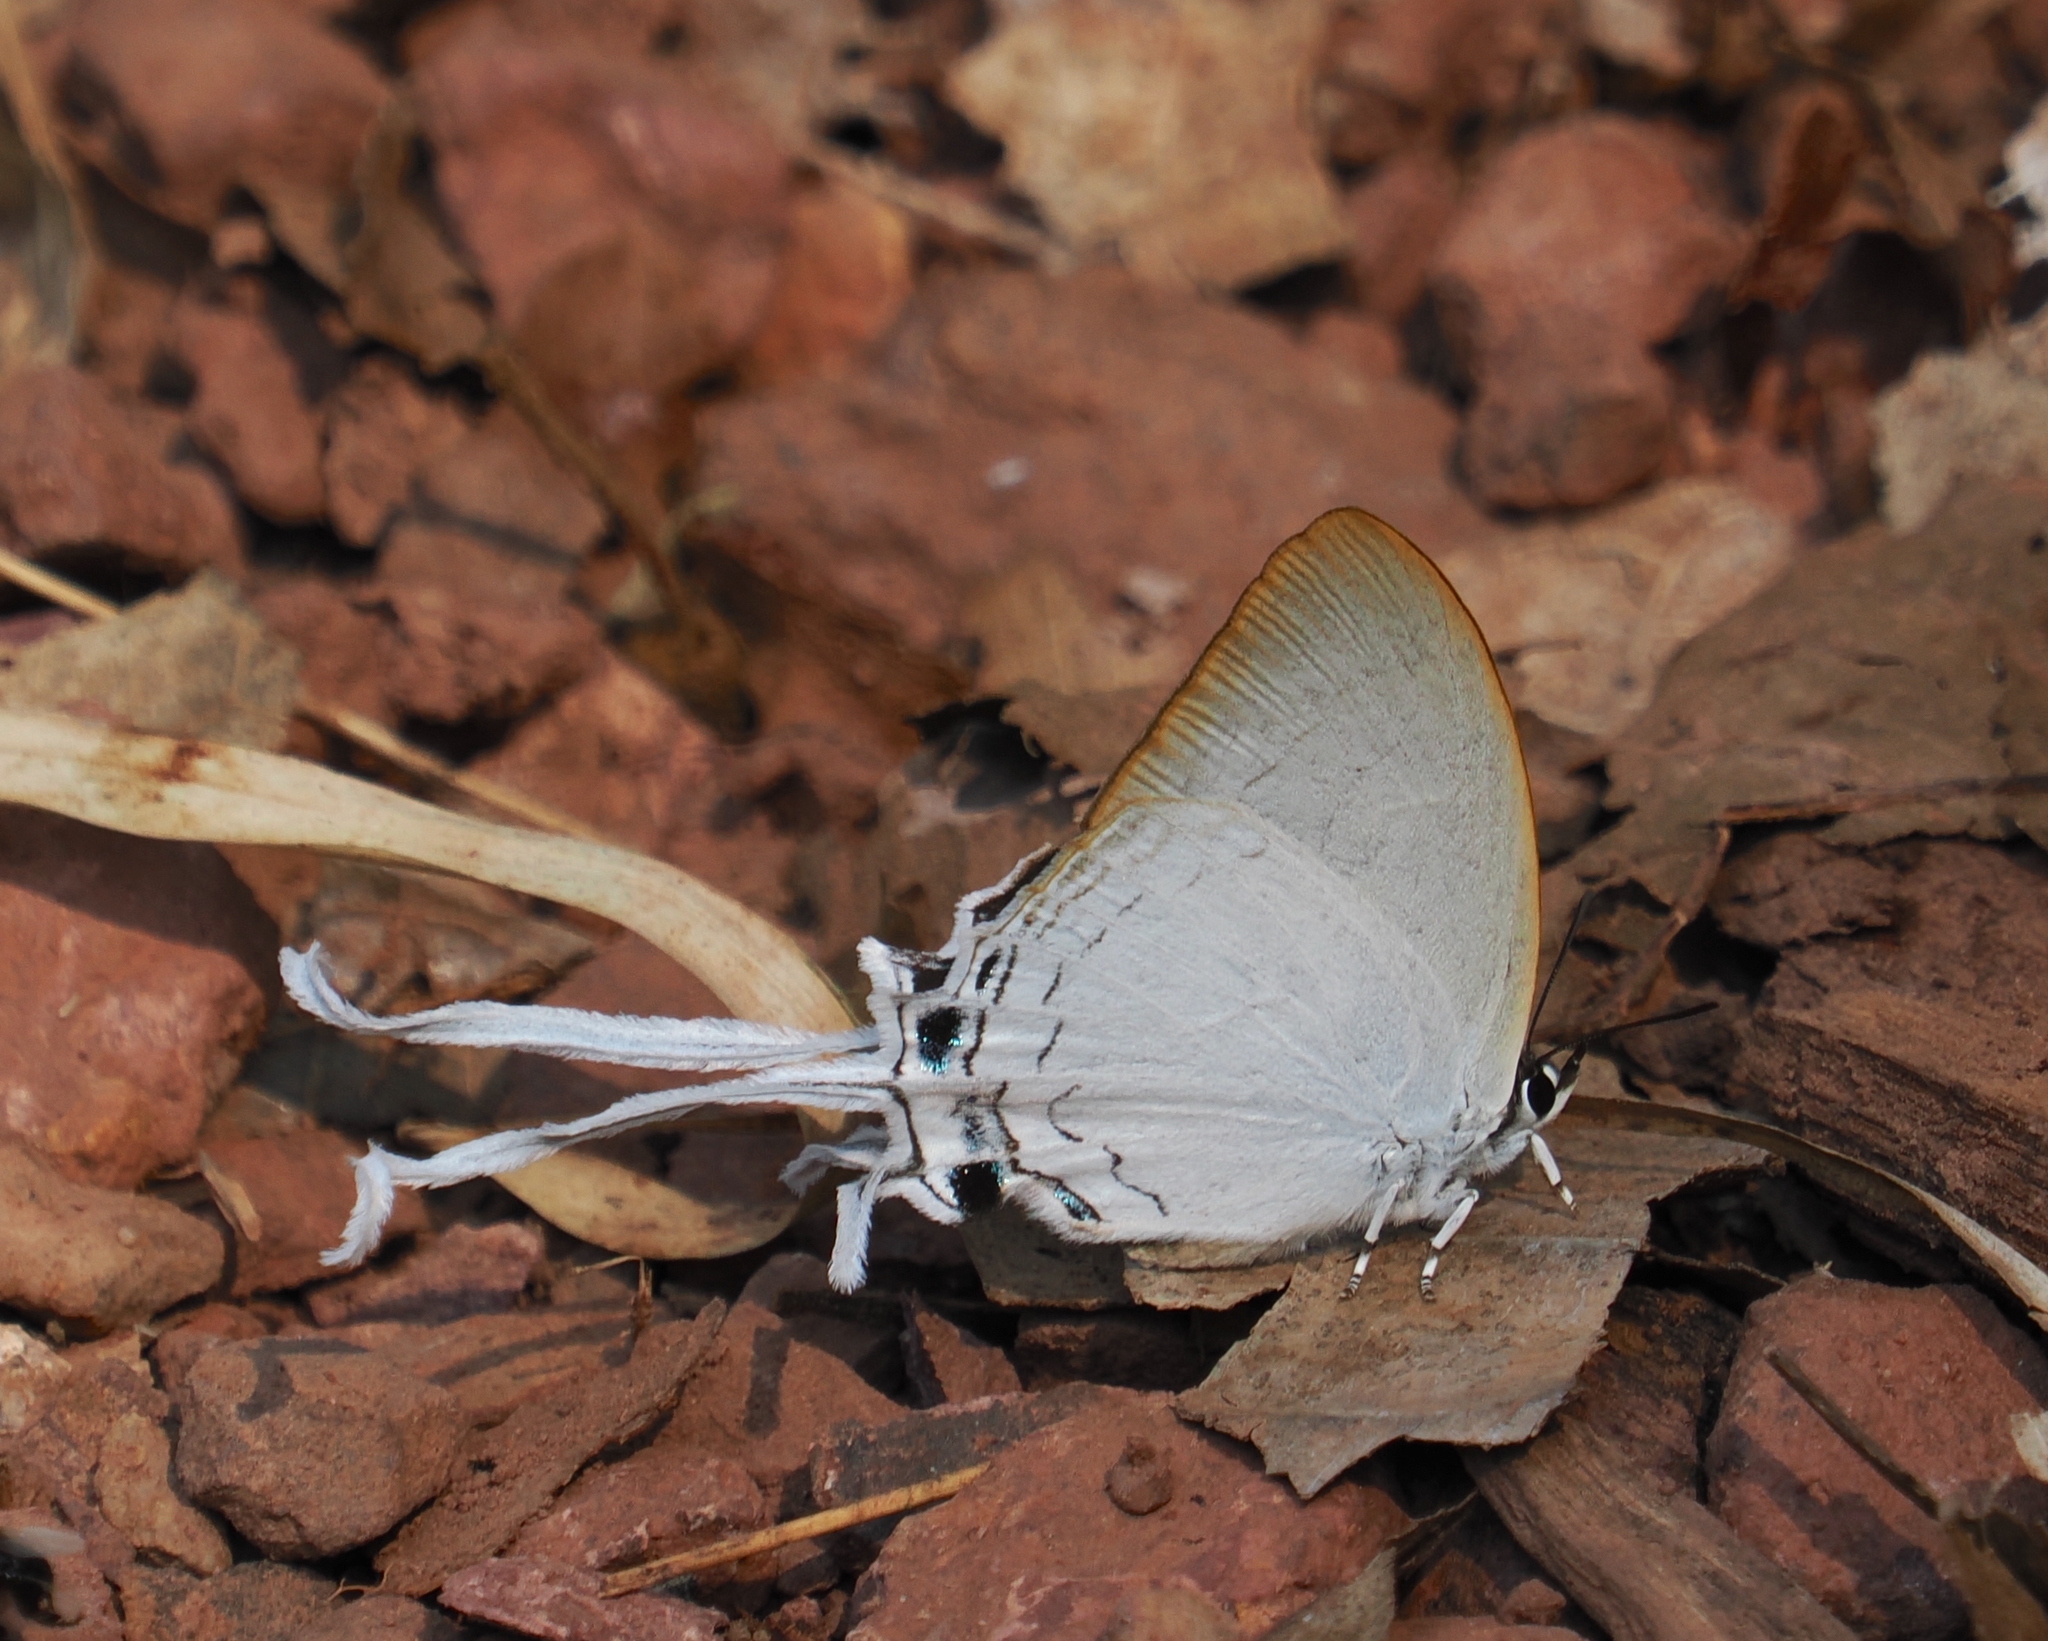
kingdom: Animalia
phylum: Arthropoda
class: Insecta
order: Lepidoptera
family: Lycaenidae
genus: Cheritra
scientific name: Cheritra freja
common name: Common imperial
